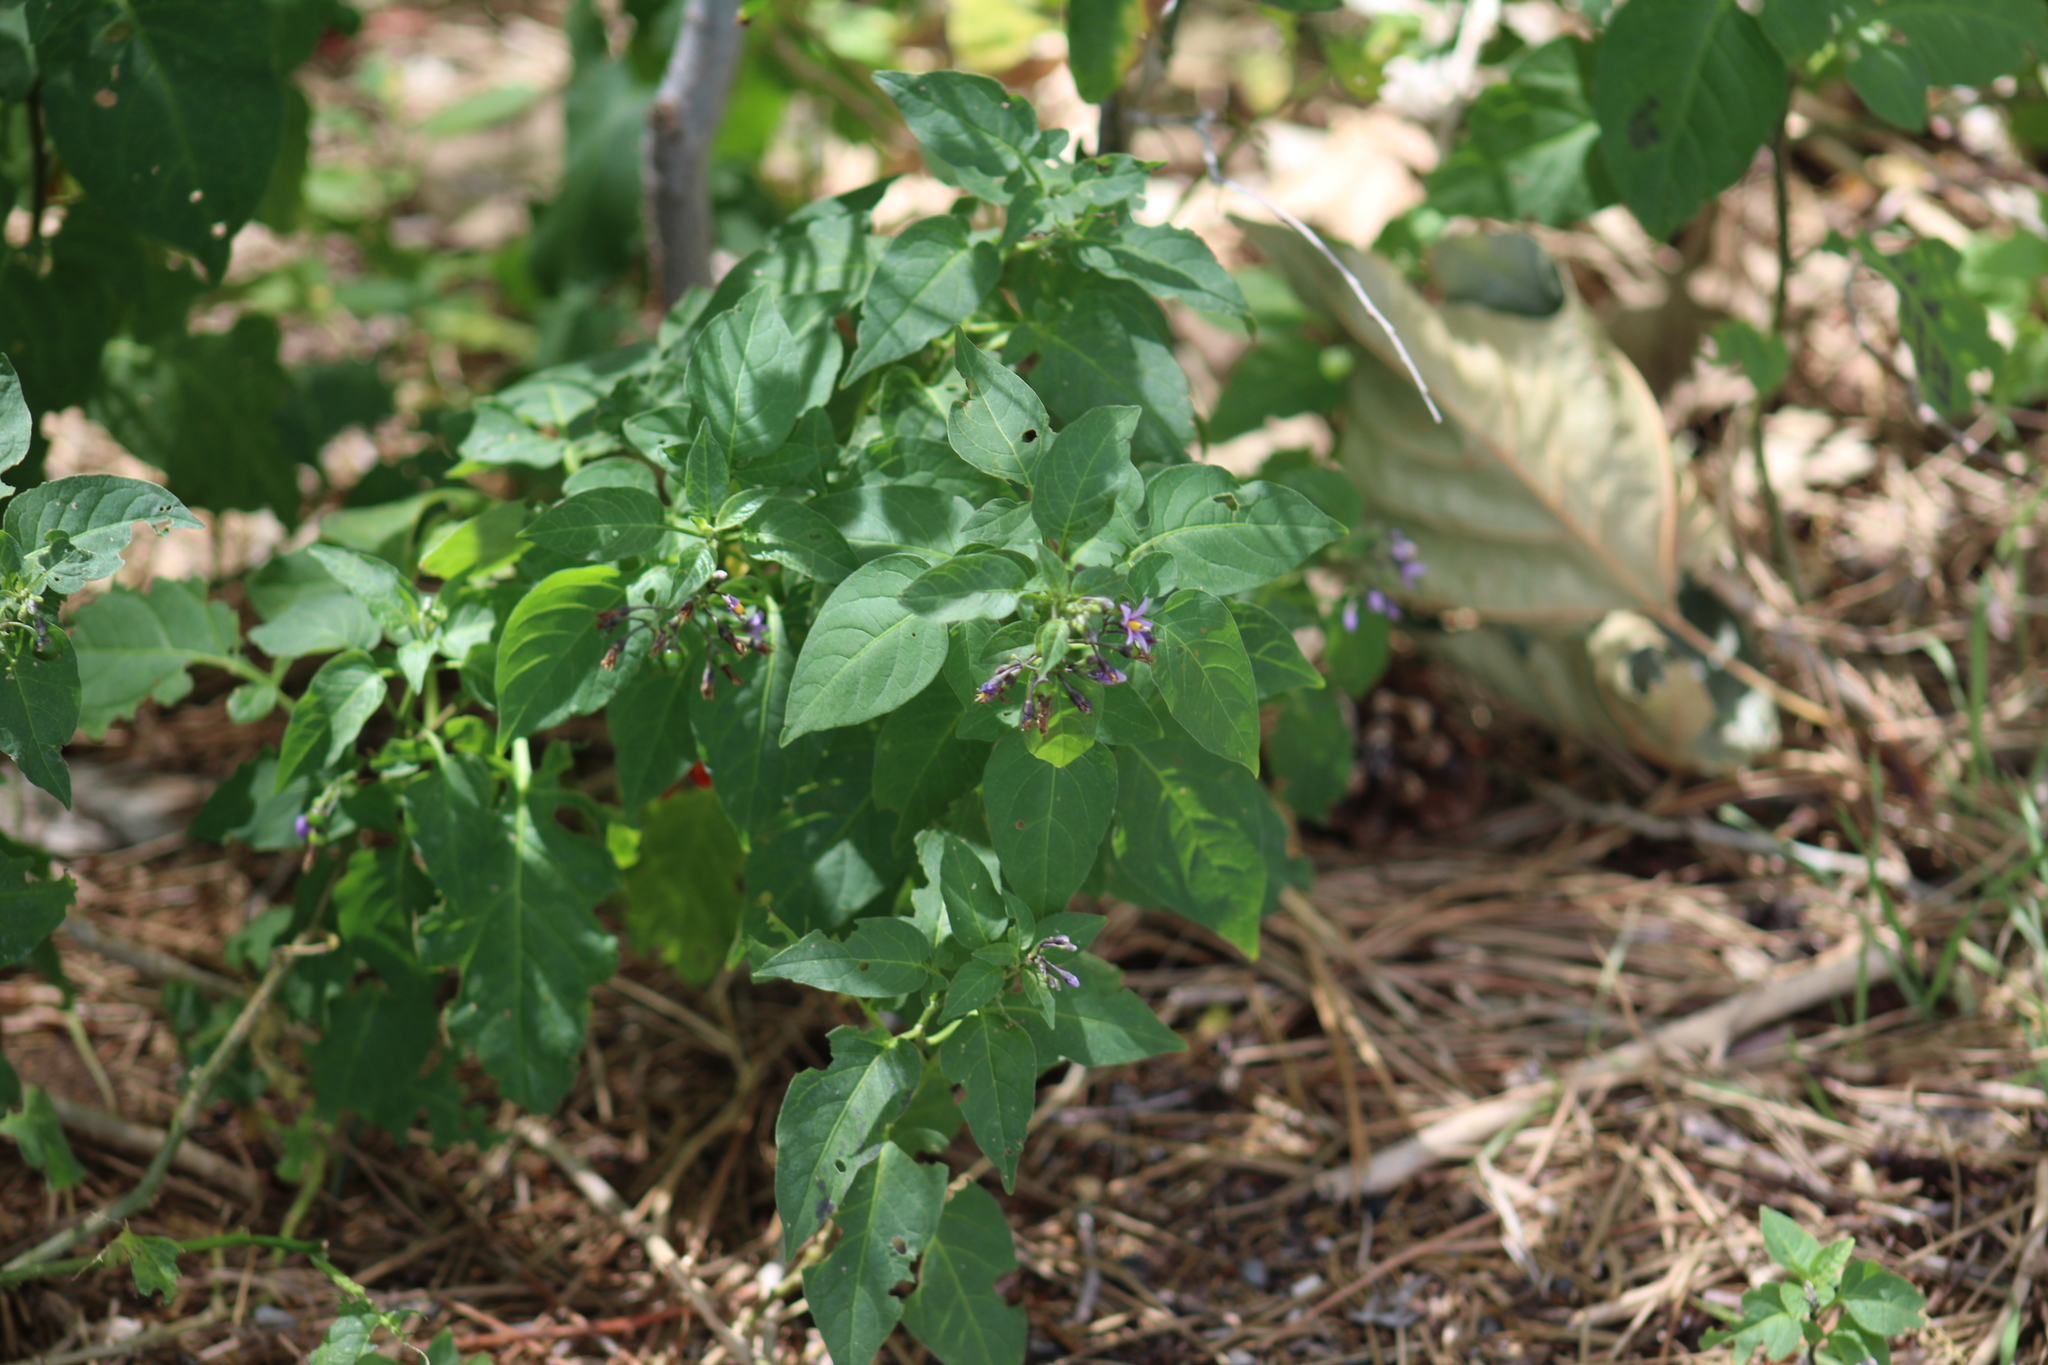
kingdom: Plantae
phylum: Tracheophyta
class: Magnoliopsida
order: Solanales
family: Solanaceae
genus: Solanum
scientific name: Solanum dulcamara
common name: Climbing nightshade
